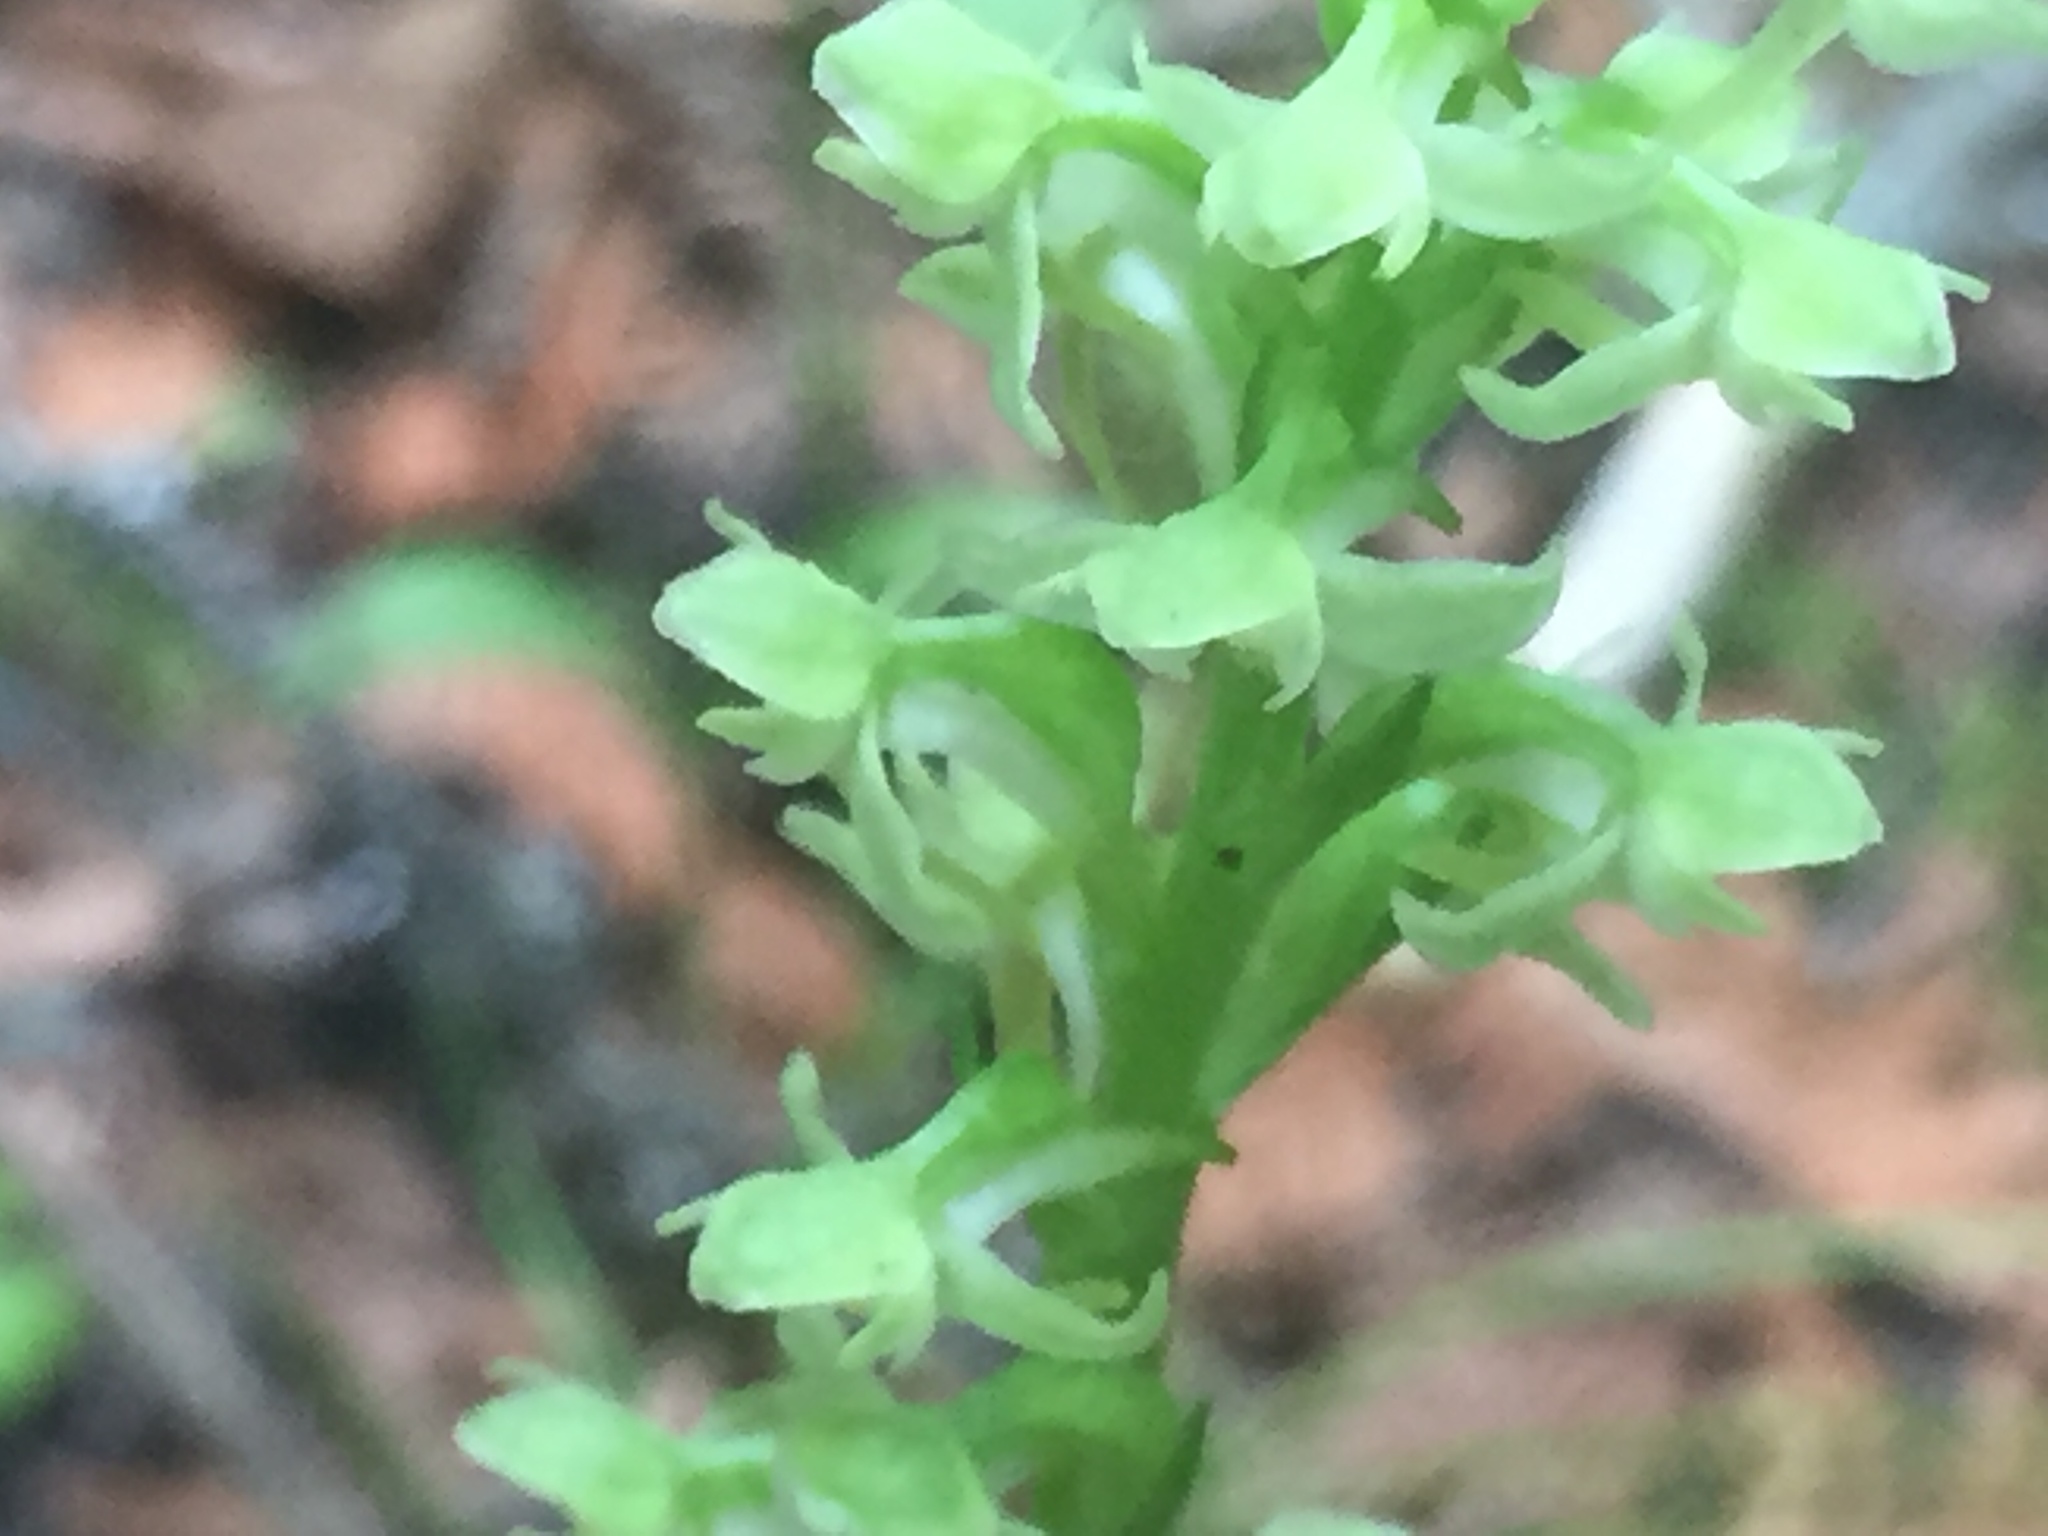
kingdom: Plantae
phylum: Tracheophyta
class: Liliopsida
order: Asparagales
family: Orchidaceae
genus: Platanthera
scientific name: Platanthera obtusata
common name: Blunt bog orchid
